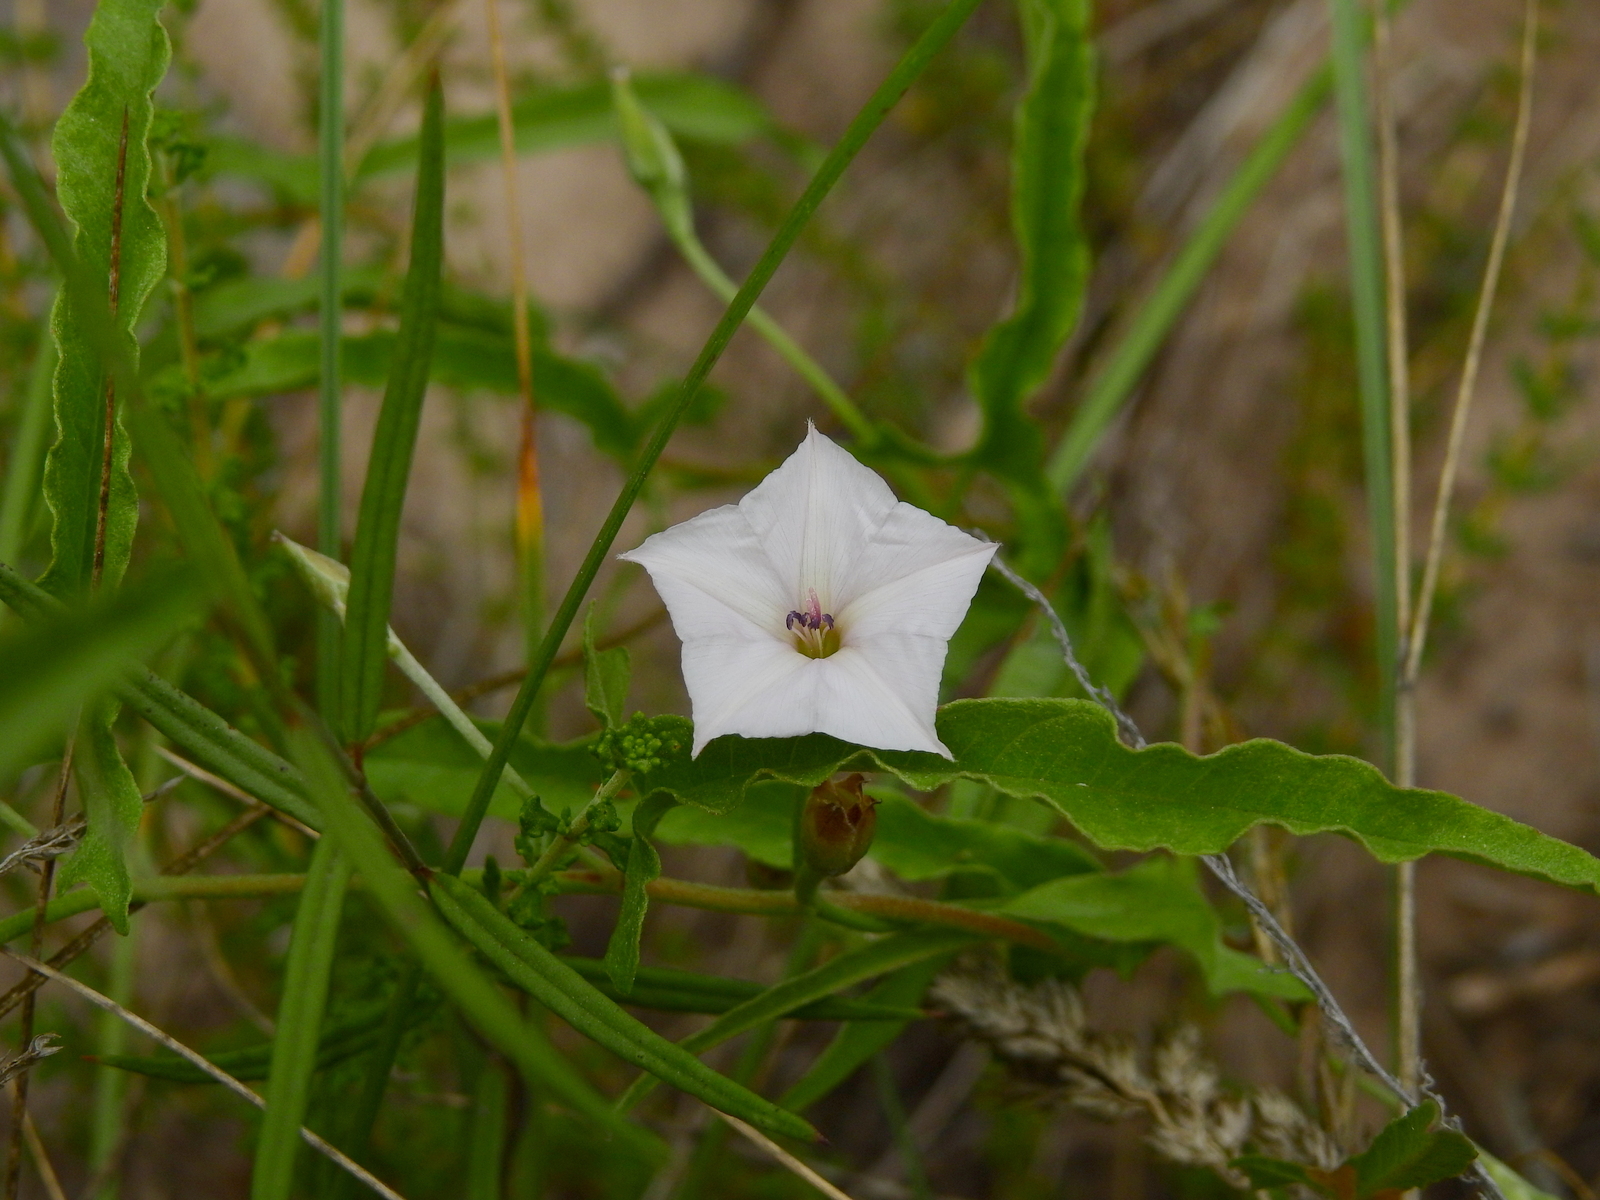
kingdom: Plantae
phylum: Tracheophyta
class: Magnoliopsida
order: Solanales
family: Convolvulaceae
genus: Convolvulus
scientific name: Convolvulus bonariensis
